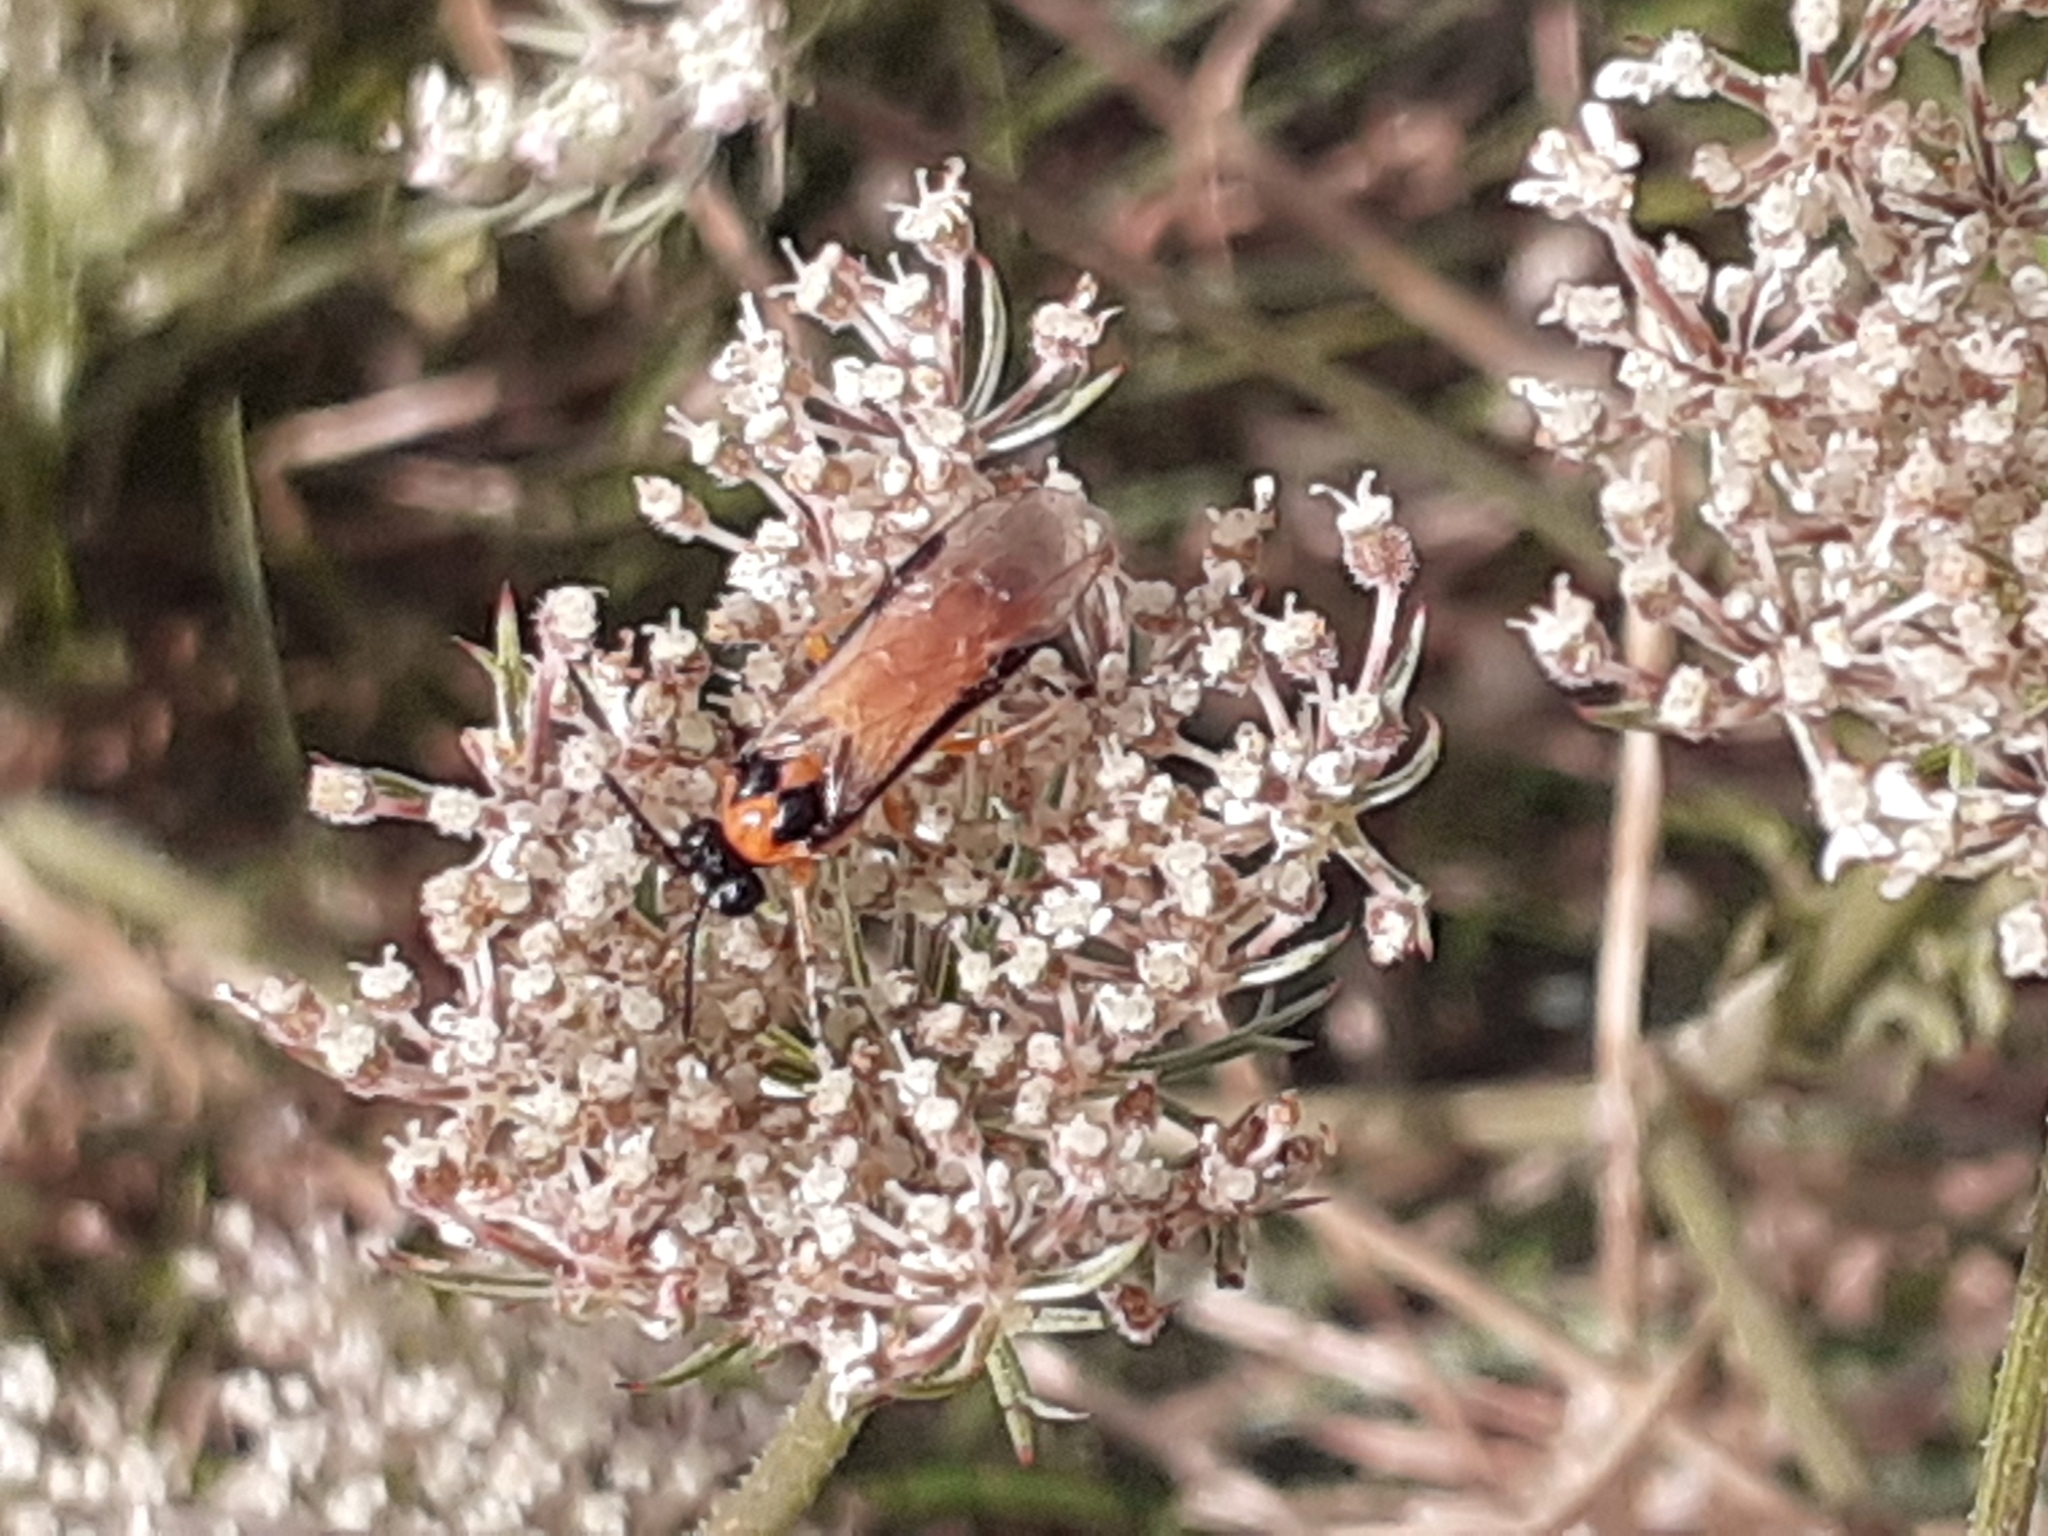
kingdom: Animalia
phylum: Arthropoda
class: Insecta
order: Hymenoptera
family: Tenthredinidae
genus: Athalia
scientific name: Athalia rosae
